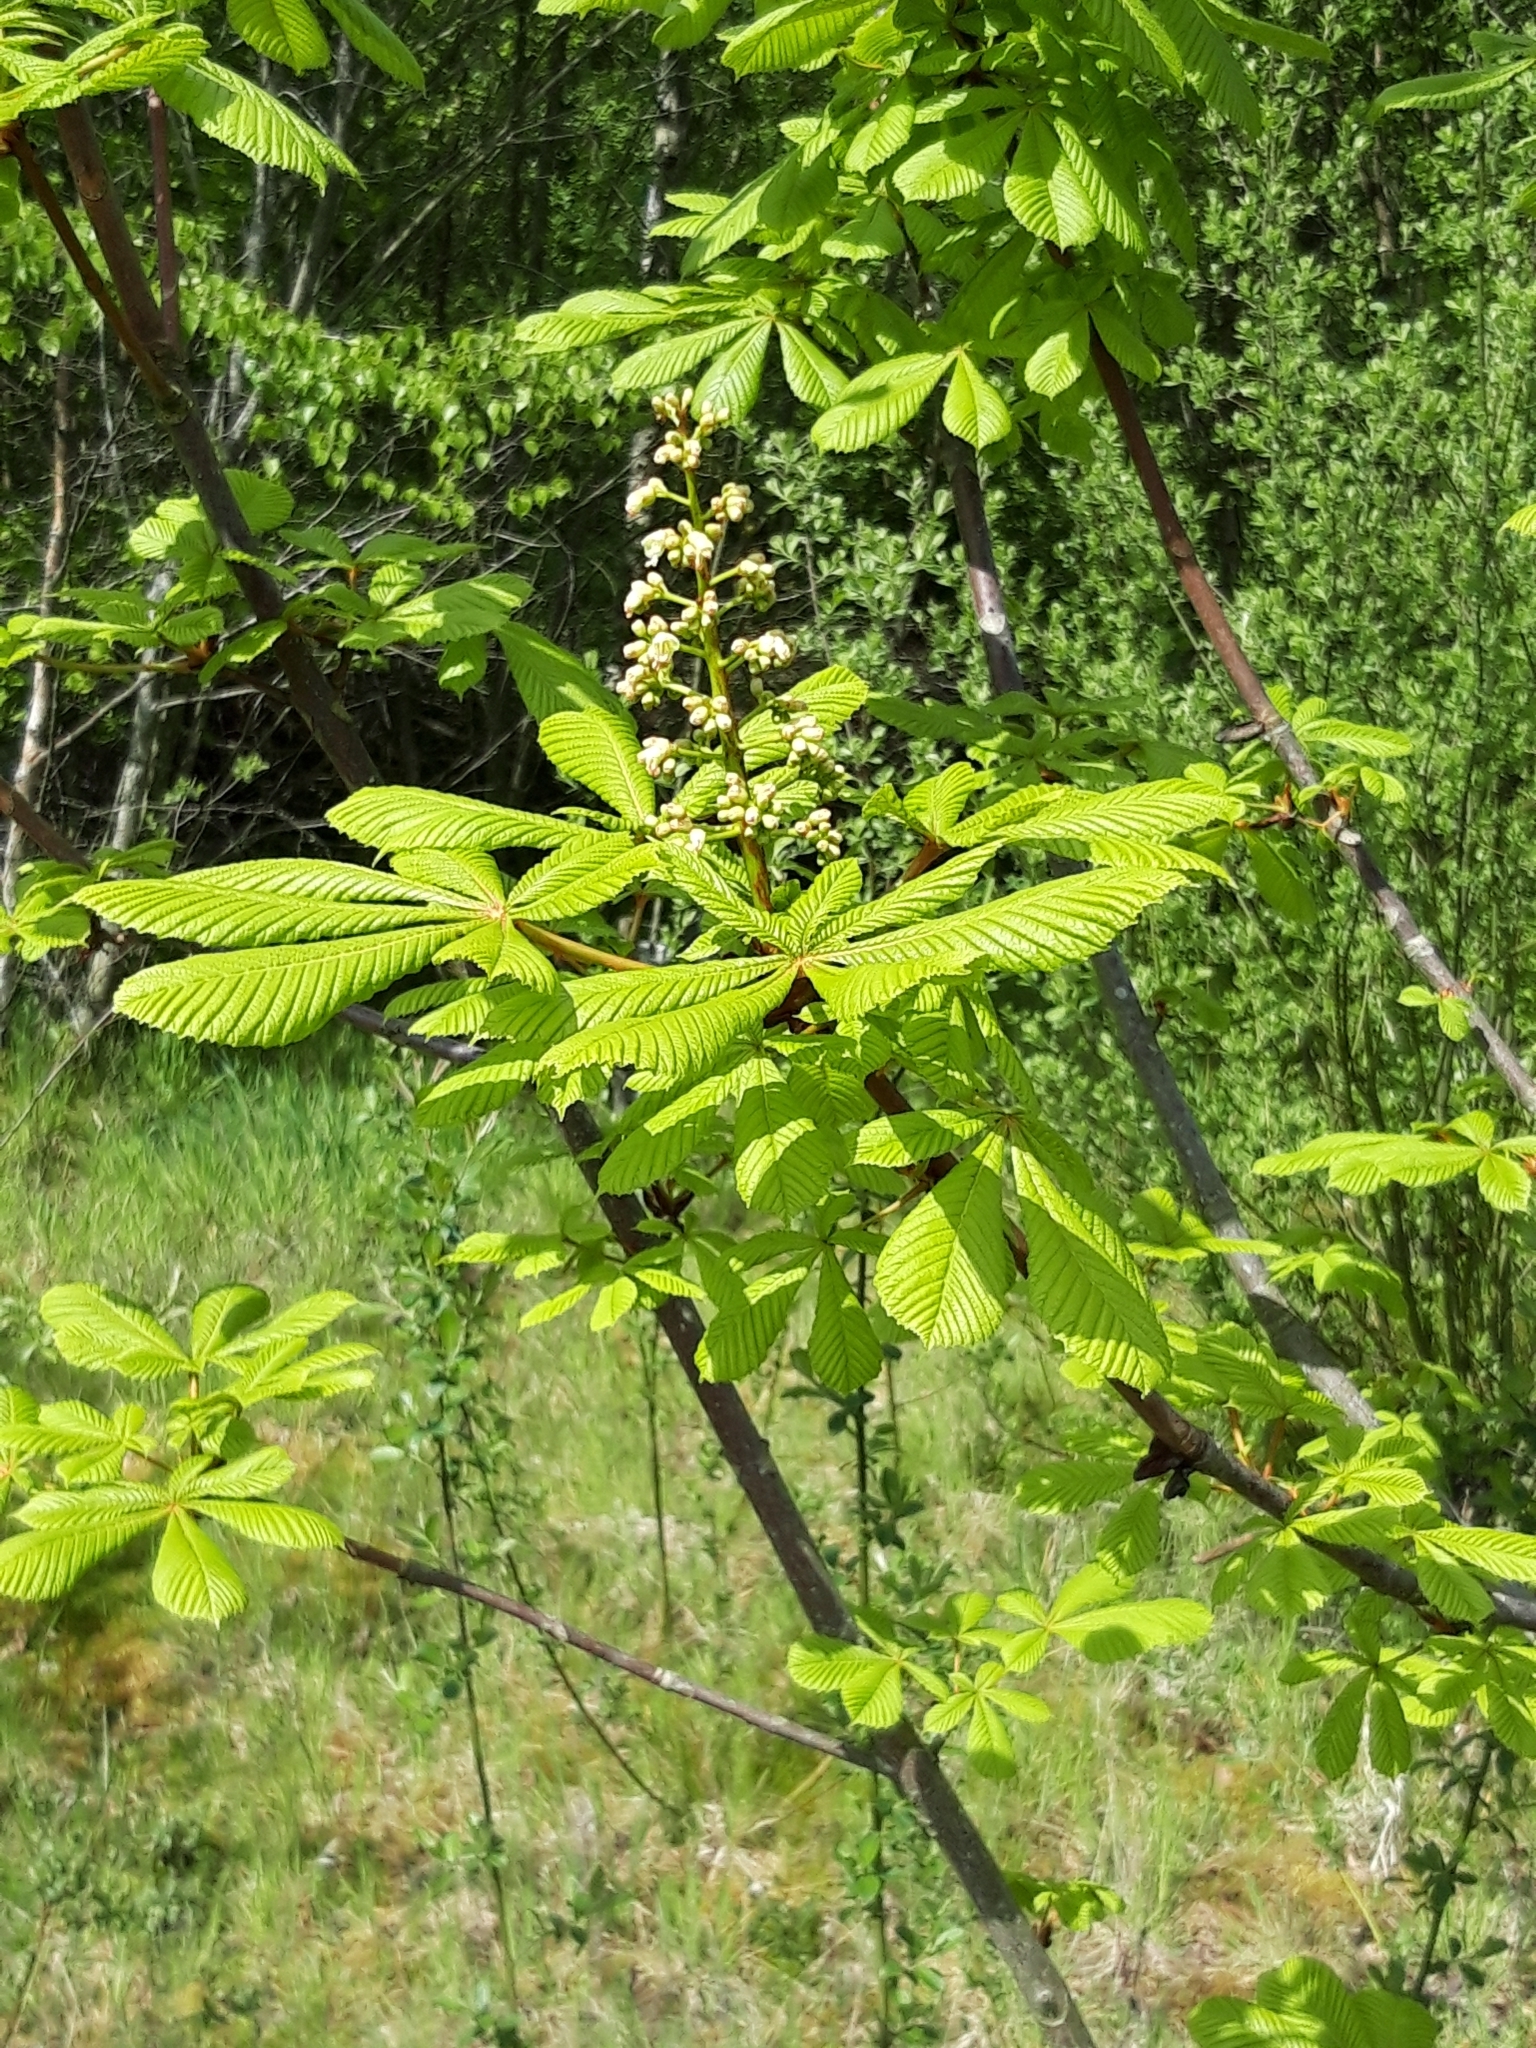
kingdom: Plantae
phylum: Tracheophyta
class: Magnoliopsida
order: Sapindales
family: Sapindaceae
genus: Aesculus
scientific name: Aesculus hippocastanum
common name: Horse-chestnut
